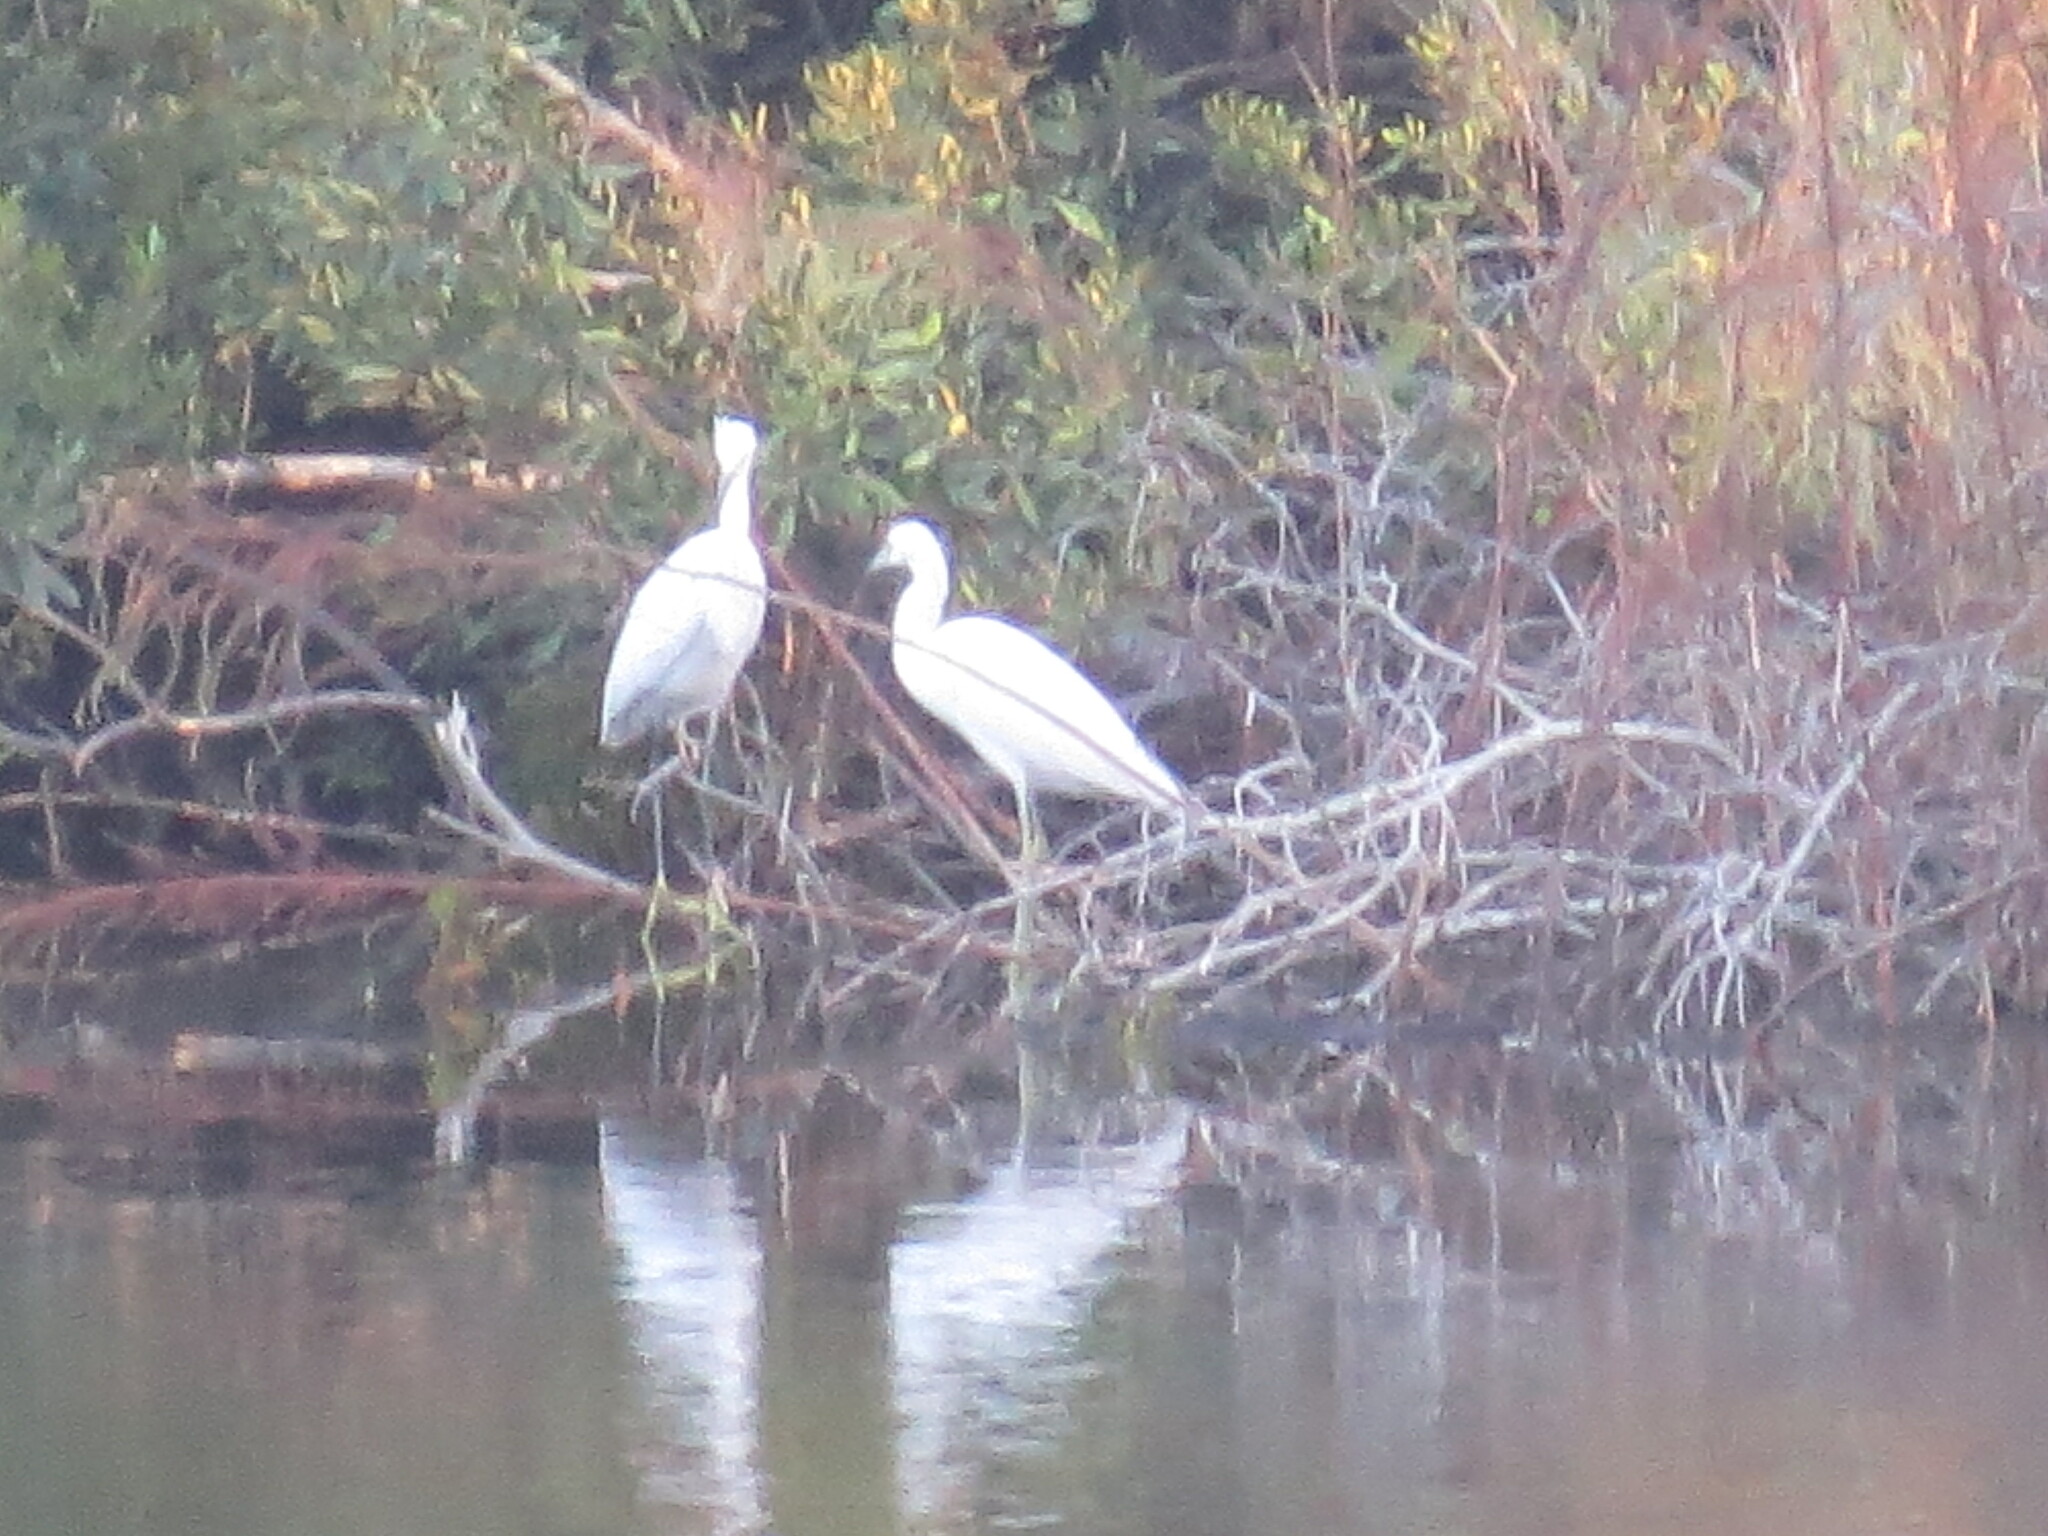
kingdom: Animalia
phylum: Chordata
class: Aves
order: Pelecaniformes
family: Ardeidae
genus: Egretta
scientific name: Egretta caerulea
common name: Little blue heron
